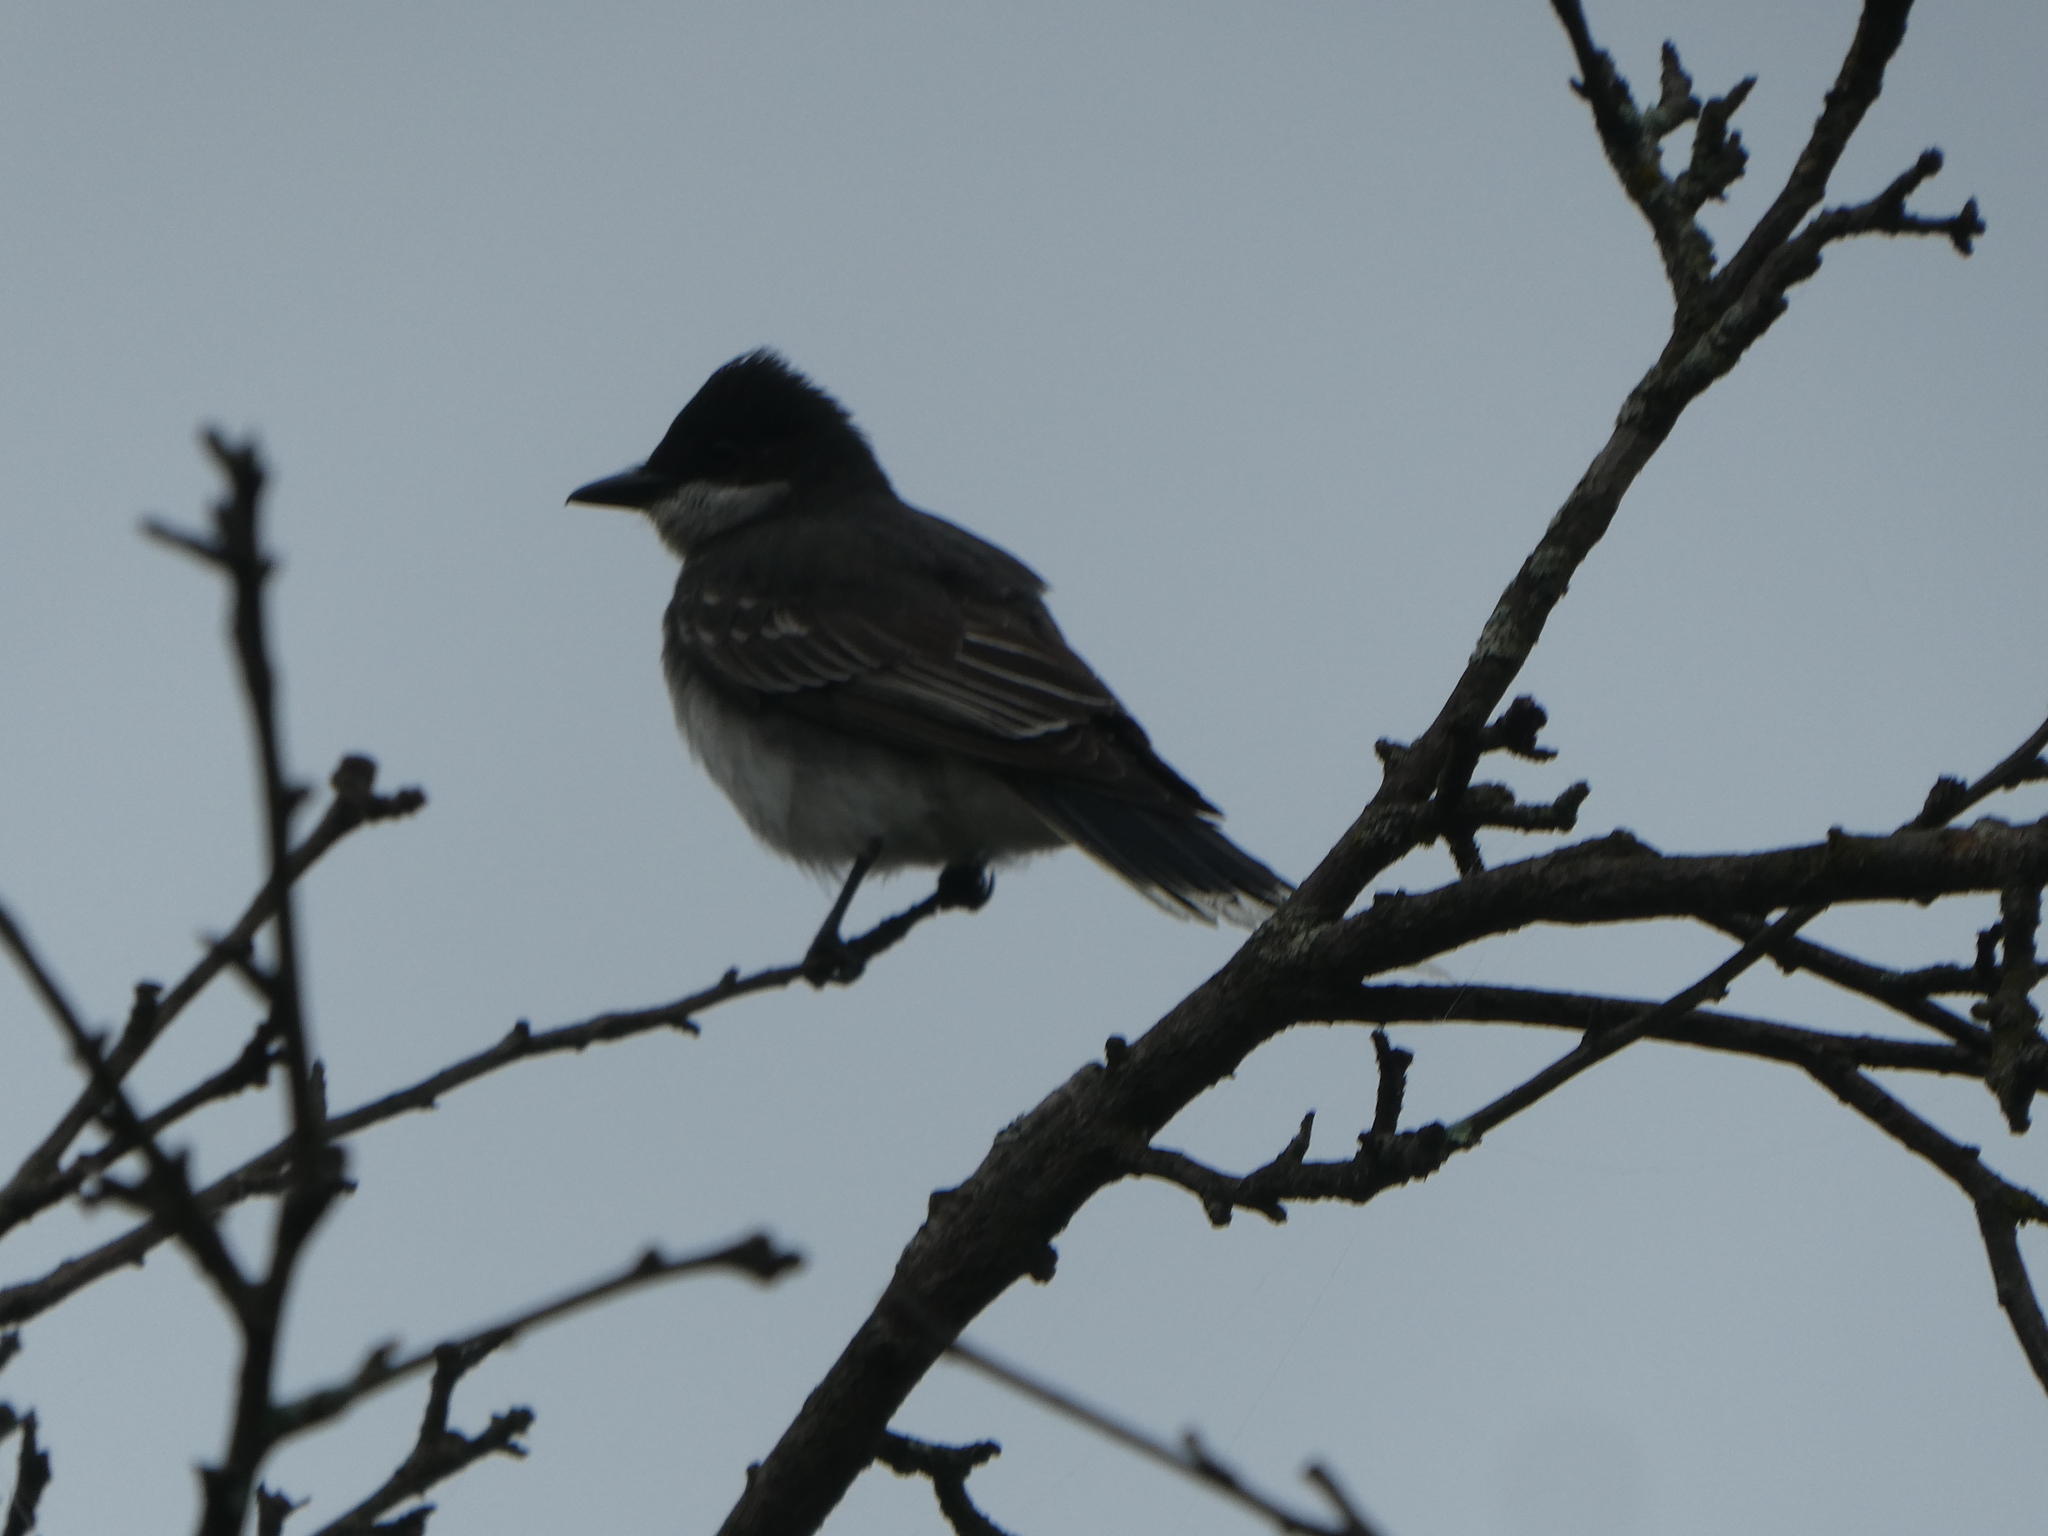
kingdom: Animalia
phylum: Chordata
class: Aves
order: Passeriformes
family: Tyrannidae
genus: Tyrannus
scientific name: Tyrannus tyrannus
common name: Eastern kingbird
